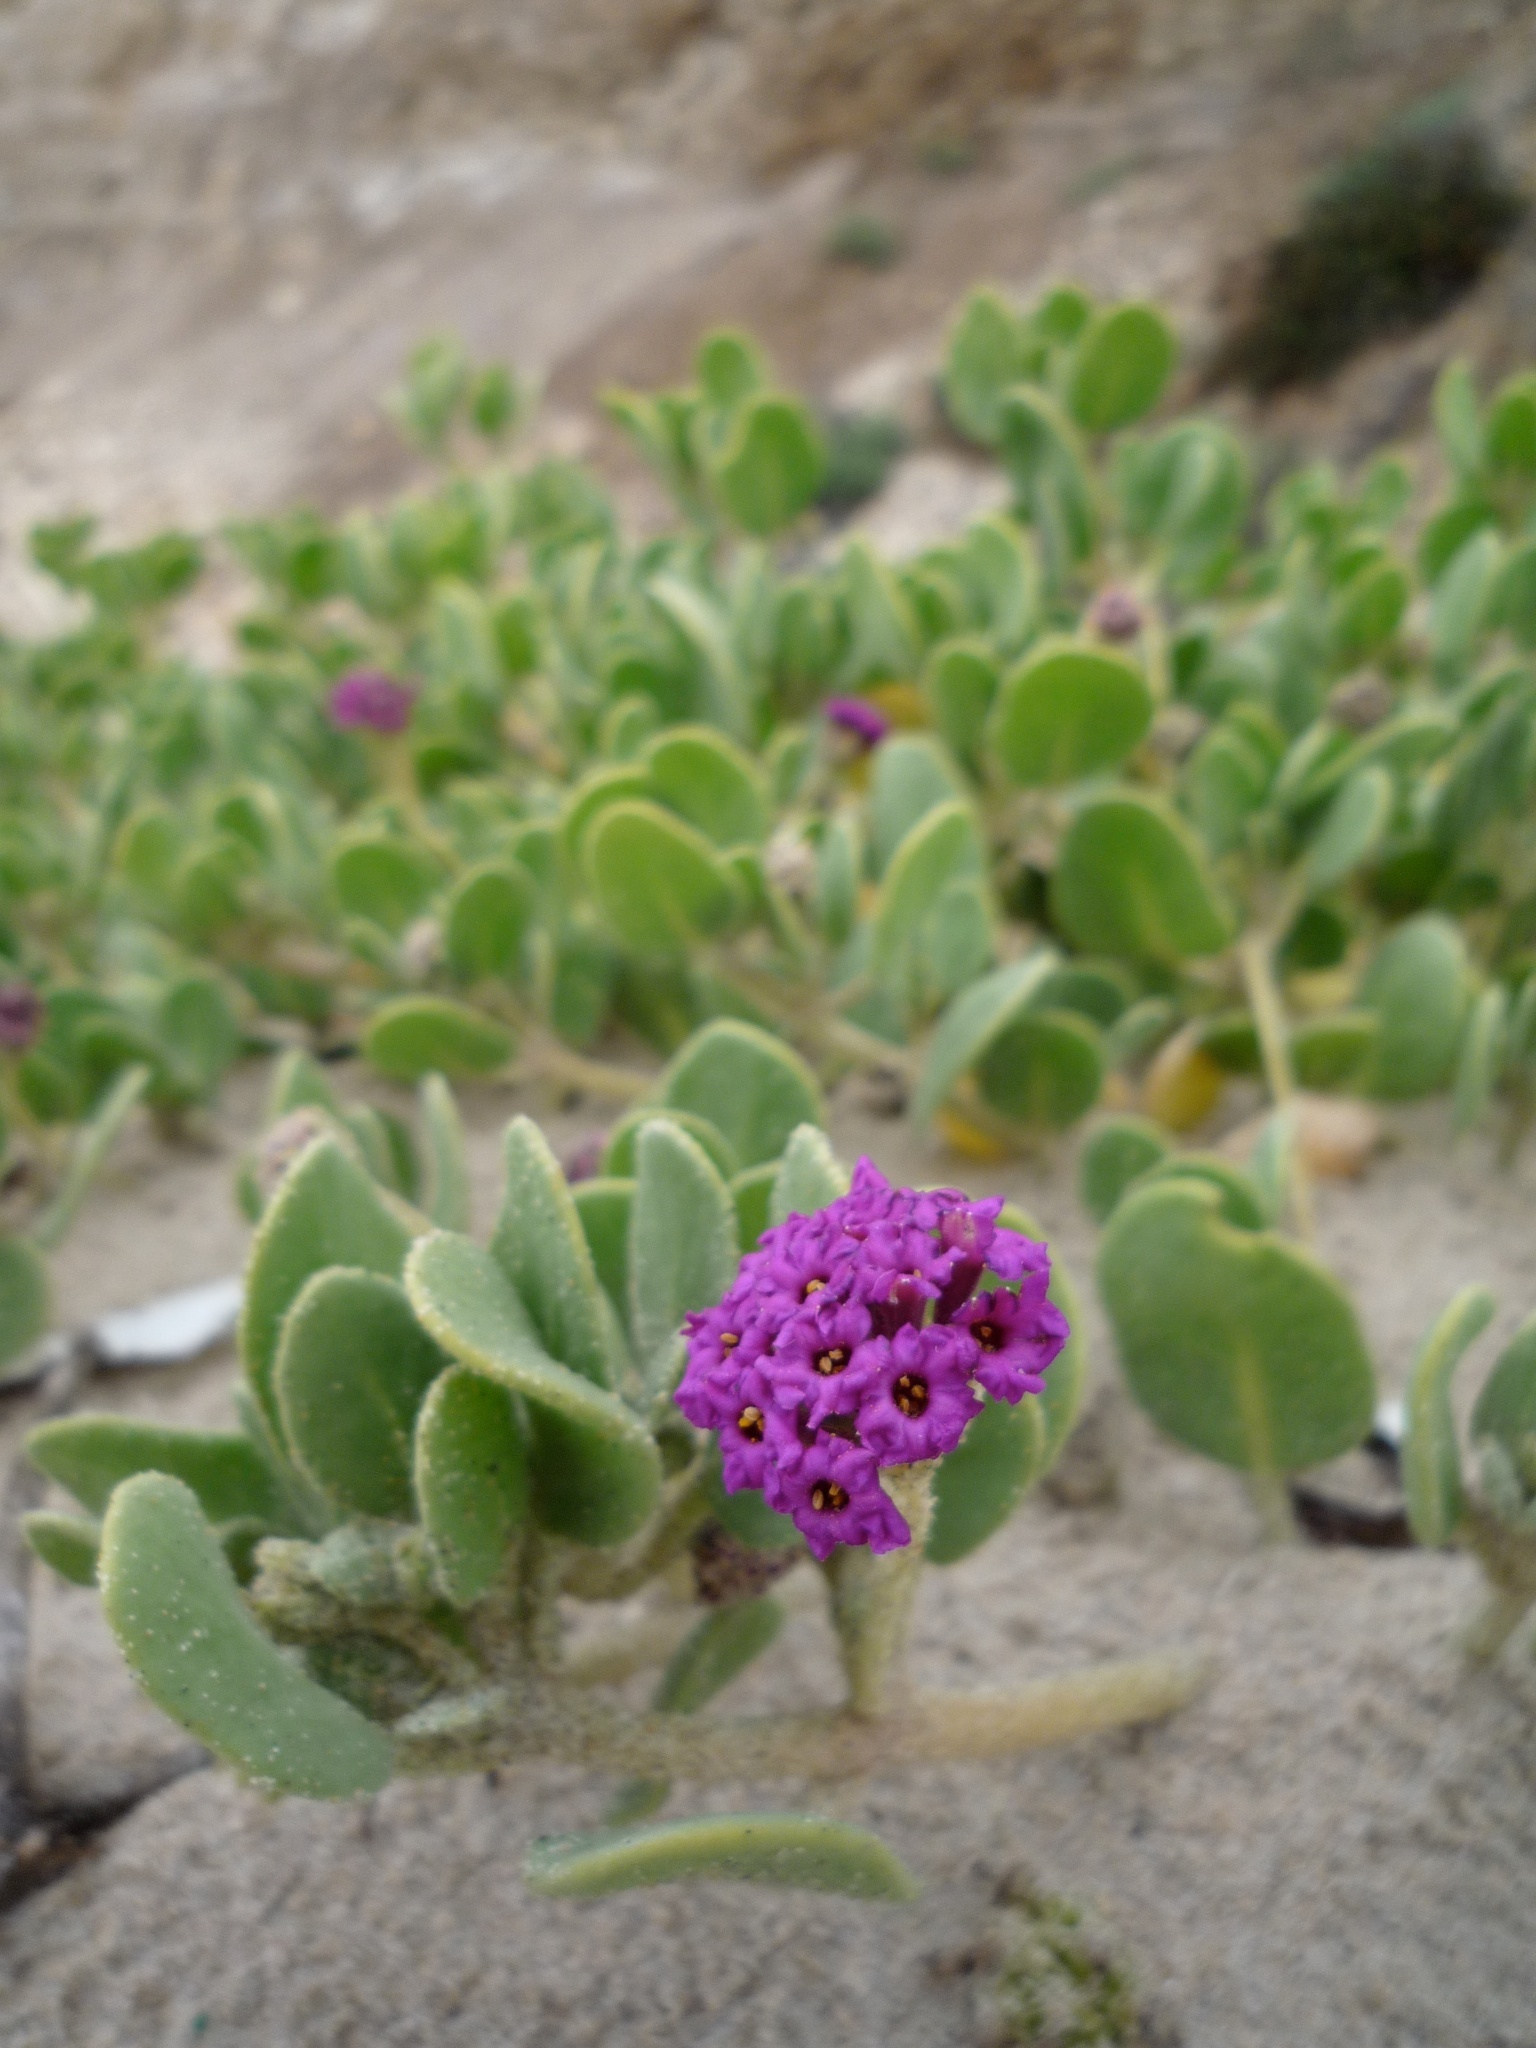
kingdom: Plantae
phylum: Tracheophyta
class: Magnoliopsida
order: Caryophyllales
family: Nyctaginaceae
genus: Abronia
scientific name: Abronia maritima
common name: Red sand-verbena
